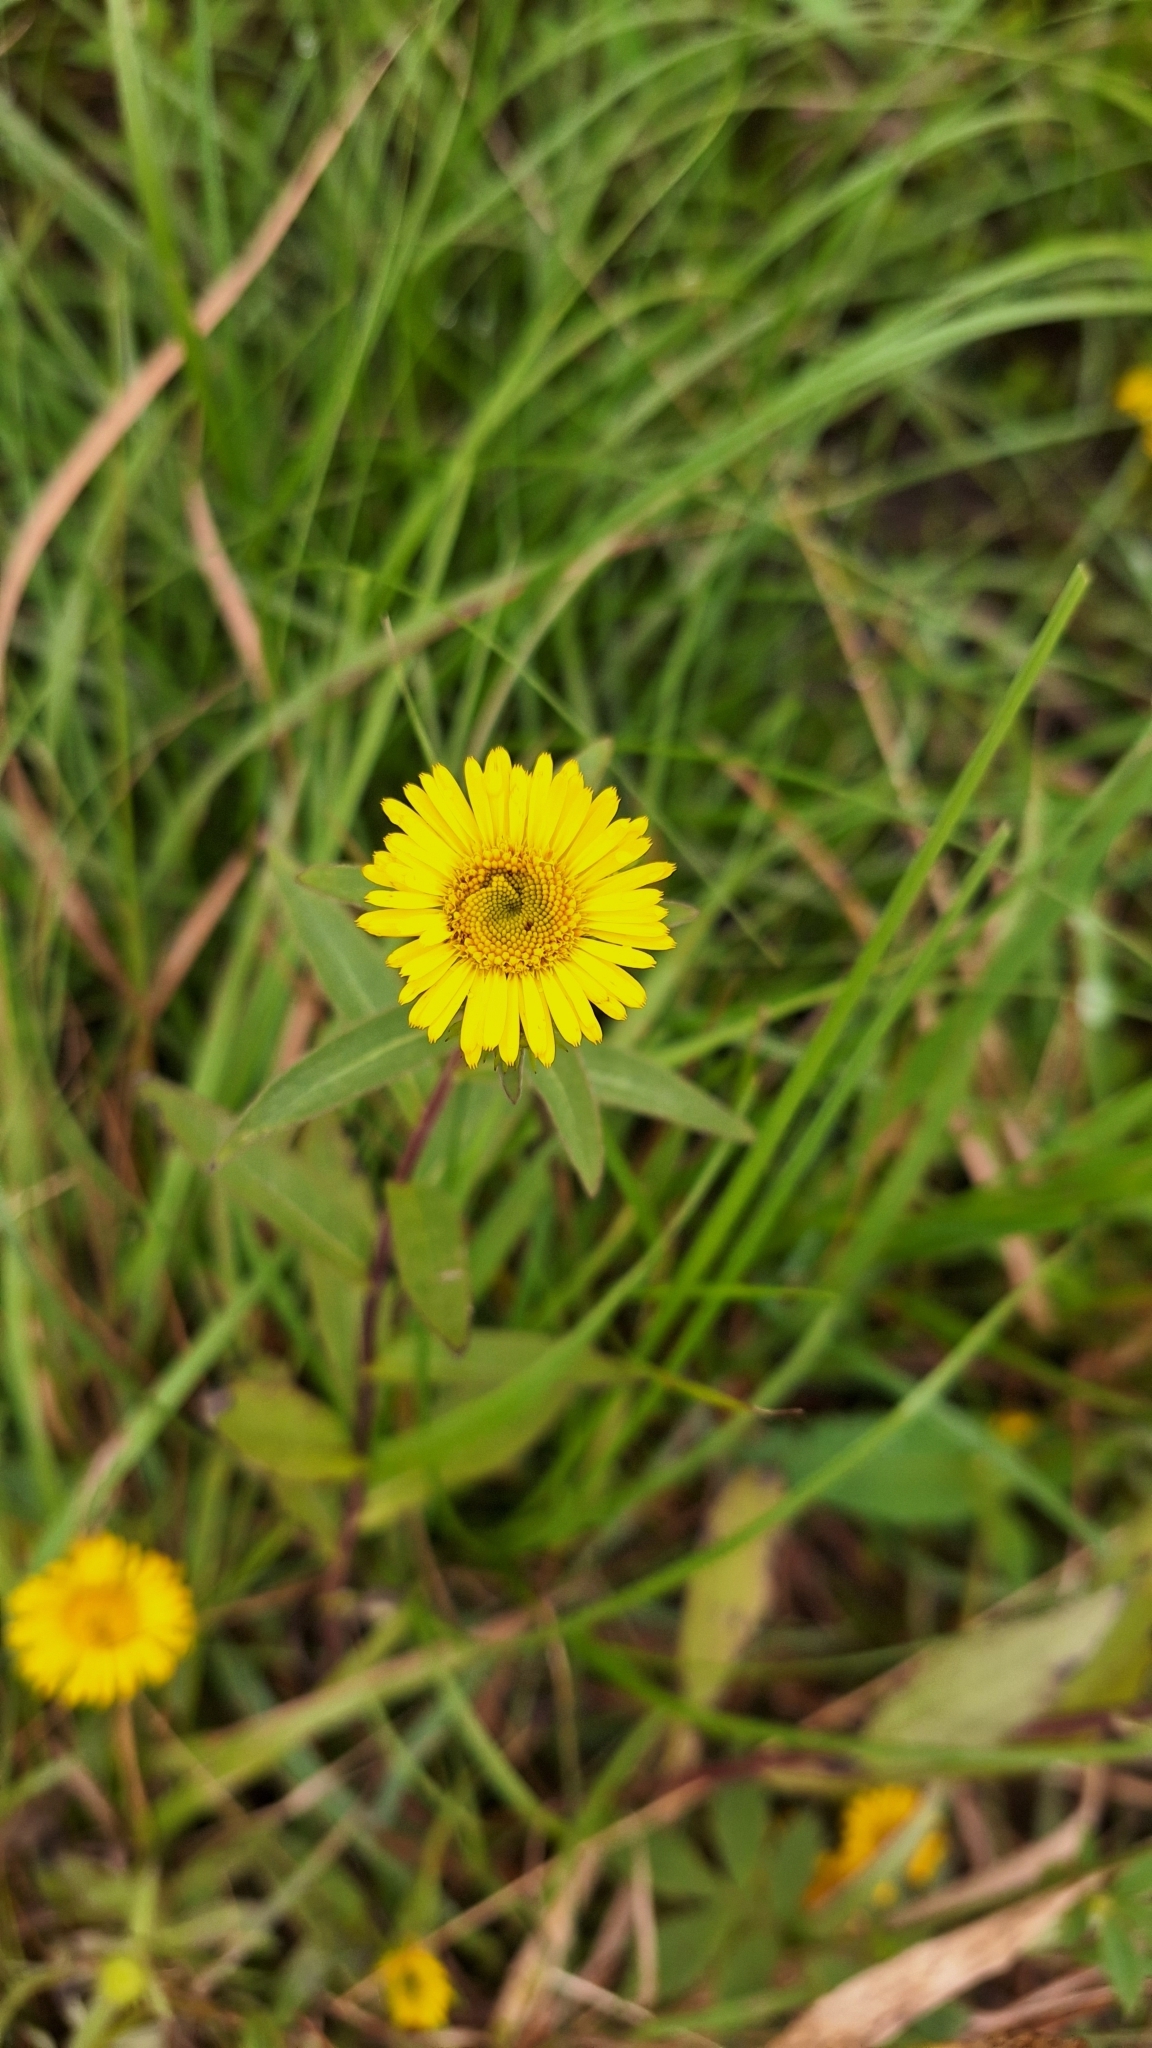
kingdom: Plantae
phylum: Tracheophyta
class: Magnoliopsida
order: Asterales
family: Asteraceae
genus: Inula
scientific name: Inula japonica
